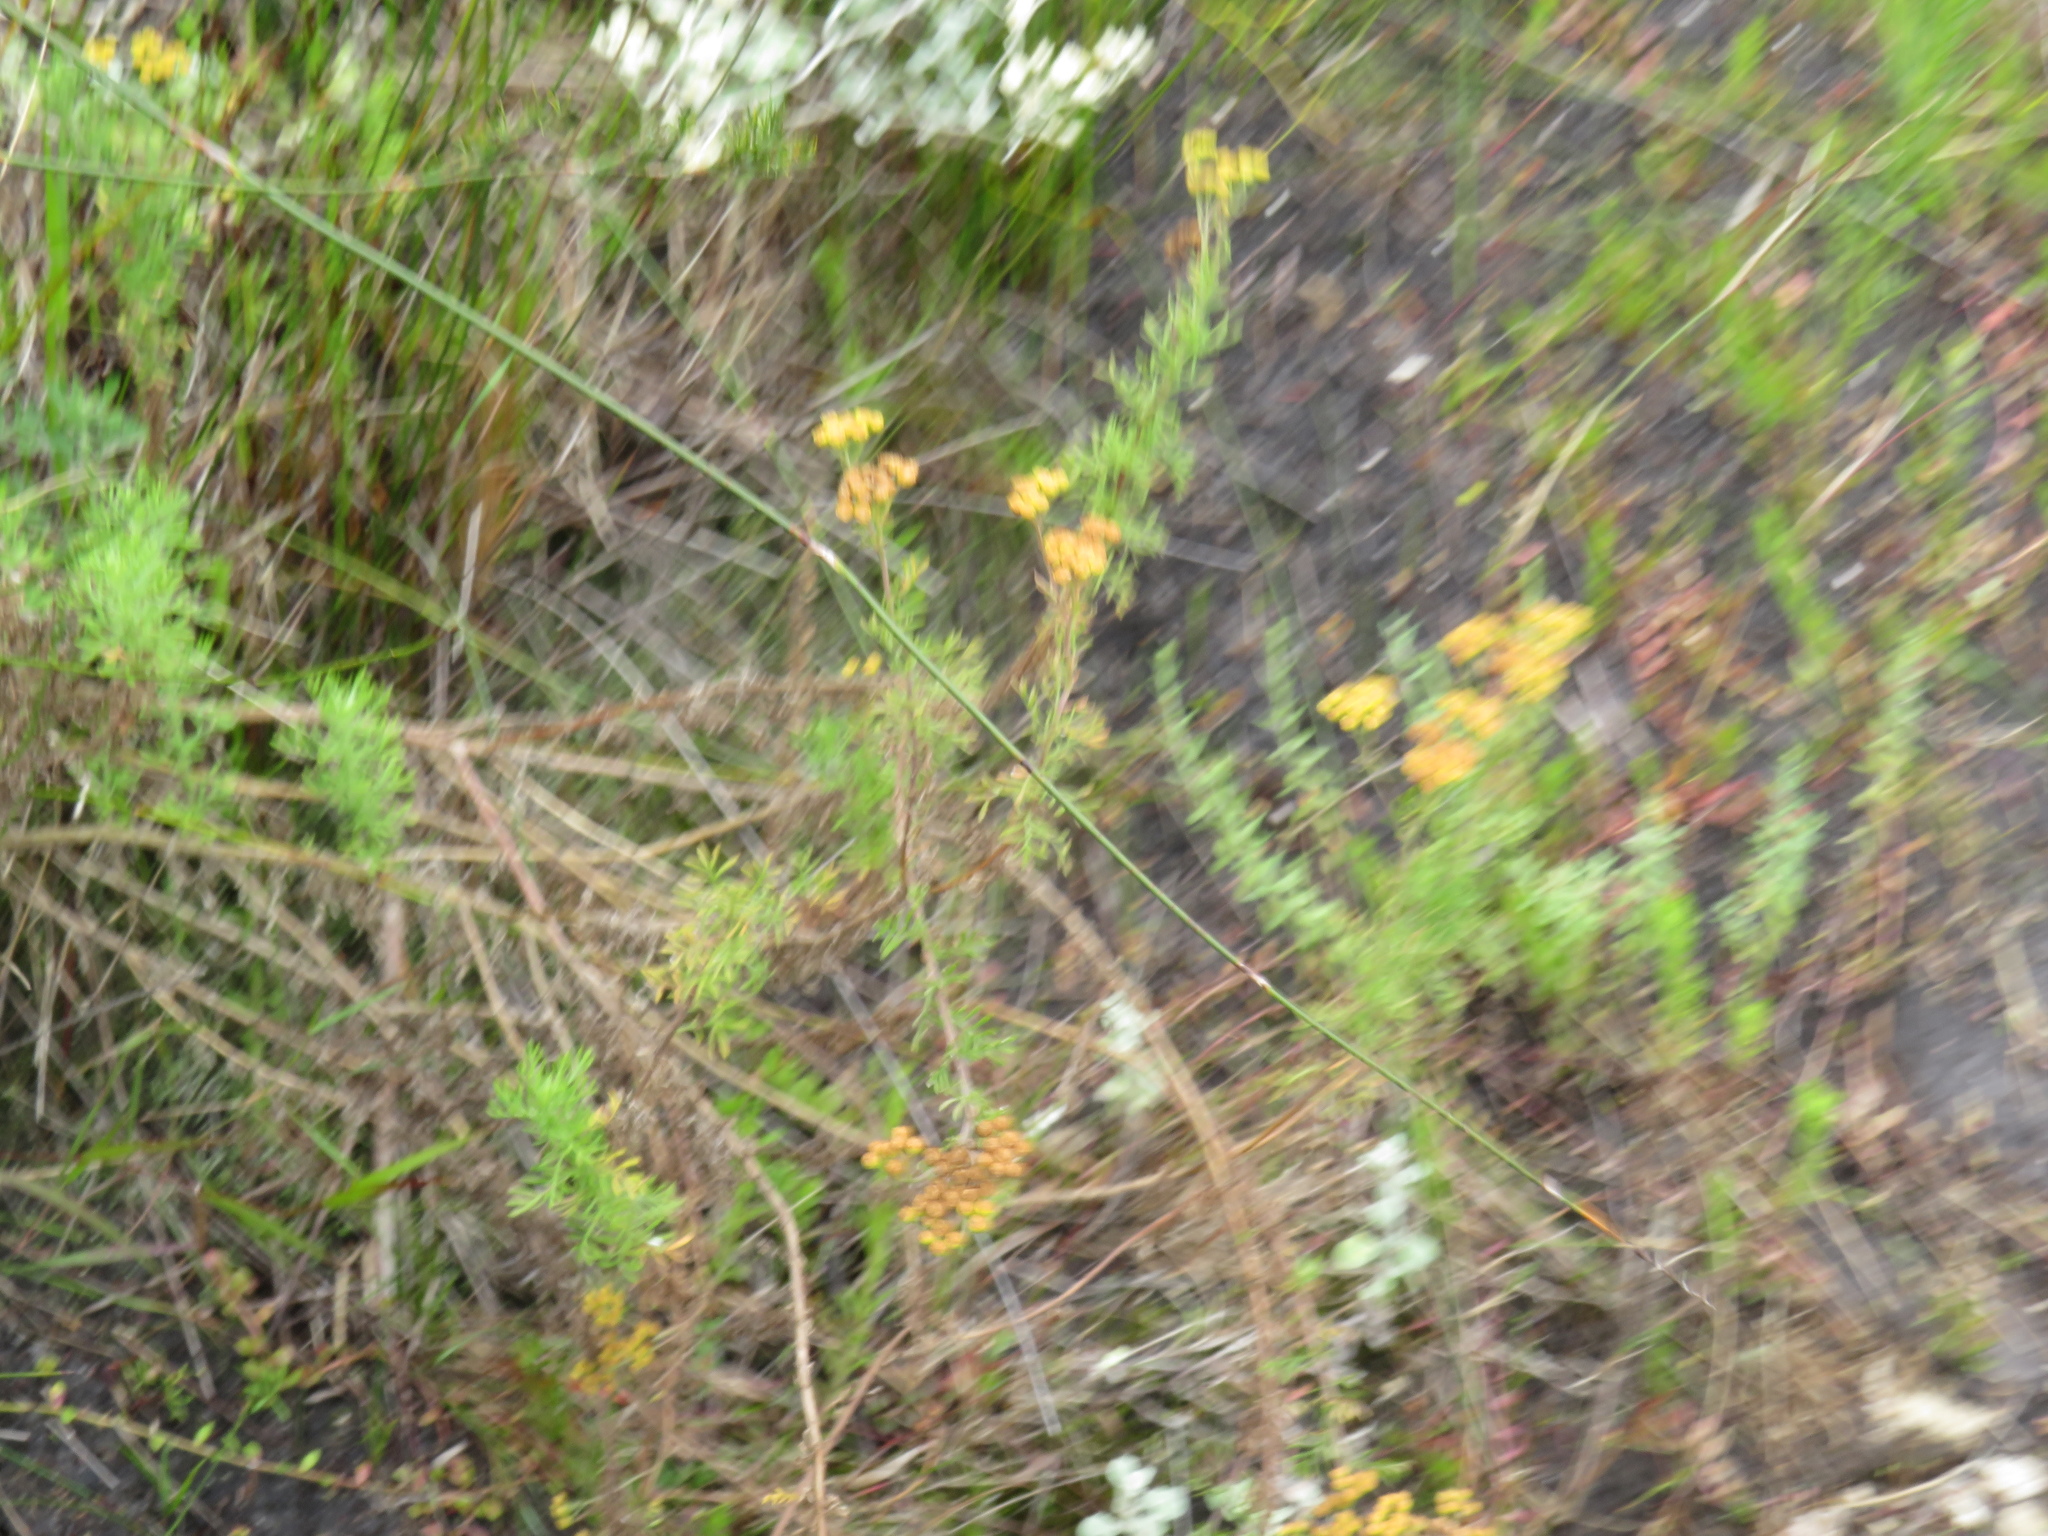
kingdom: Plantae
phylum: Tracheophyta
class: Magnoliopsida
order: Asterales
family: Asteraceae
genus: Hippia
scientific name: Hippia frutescens
